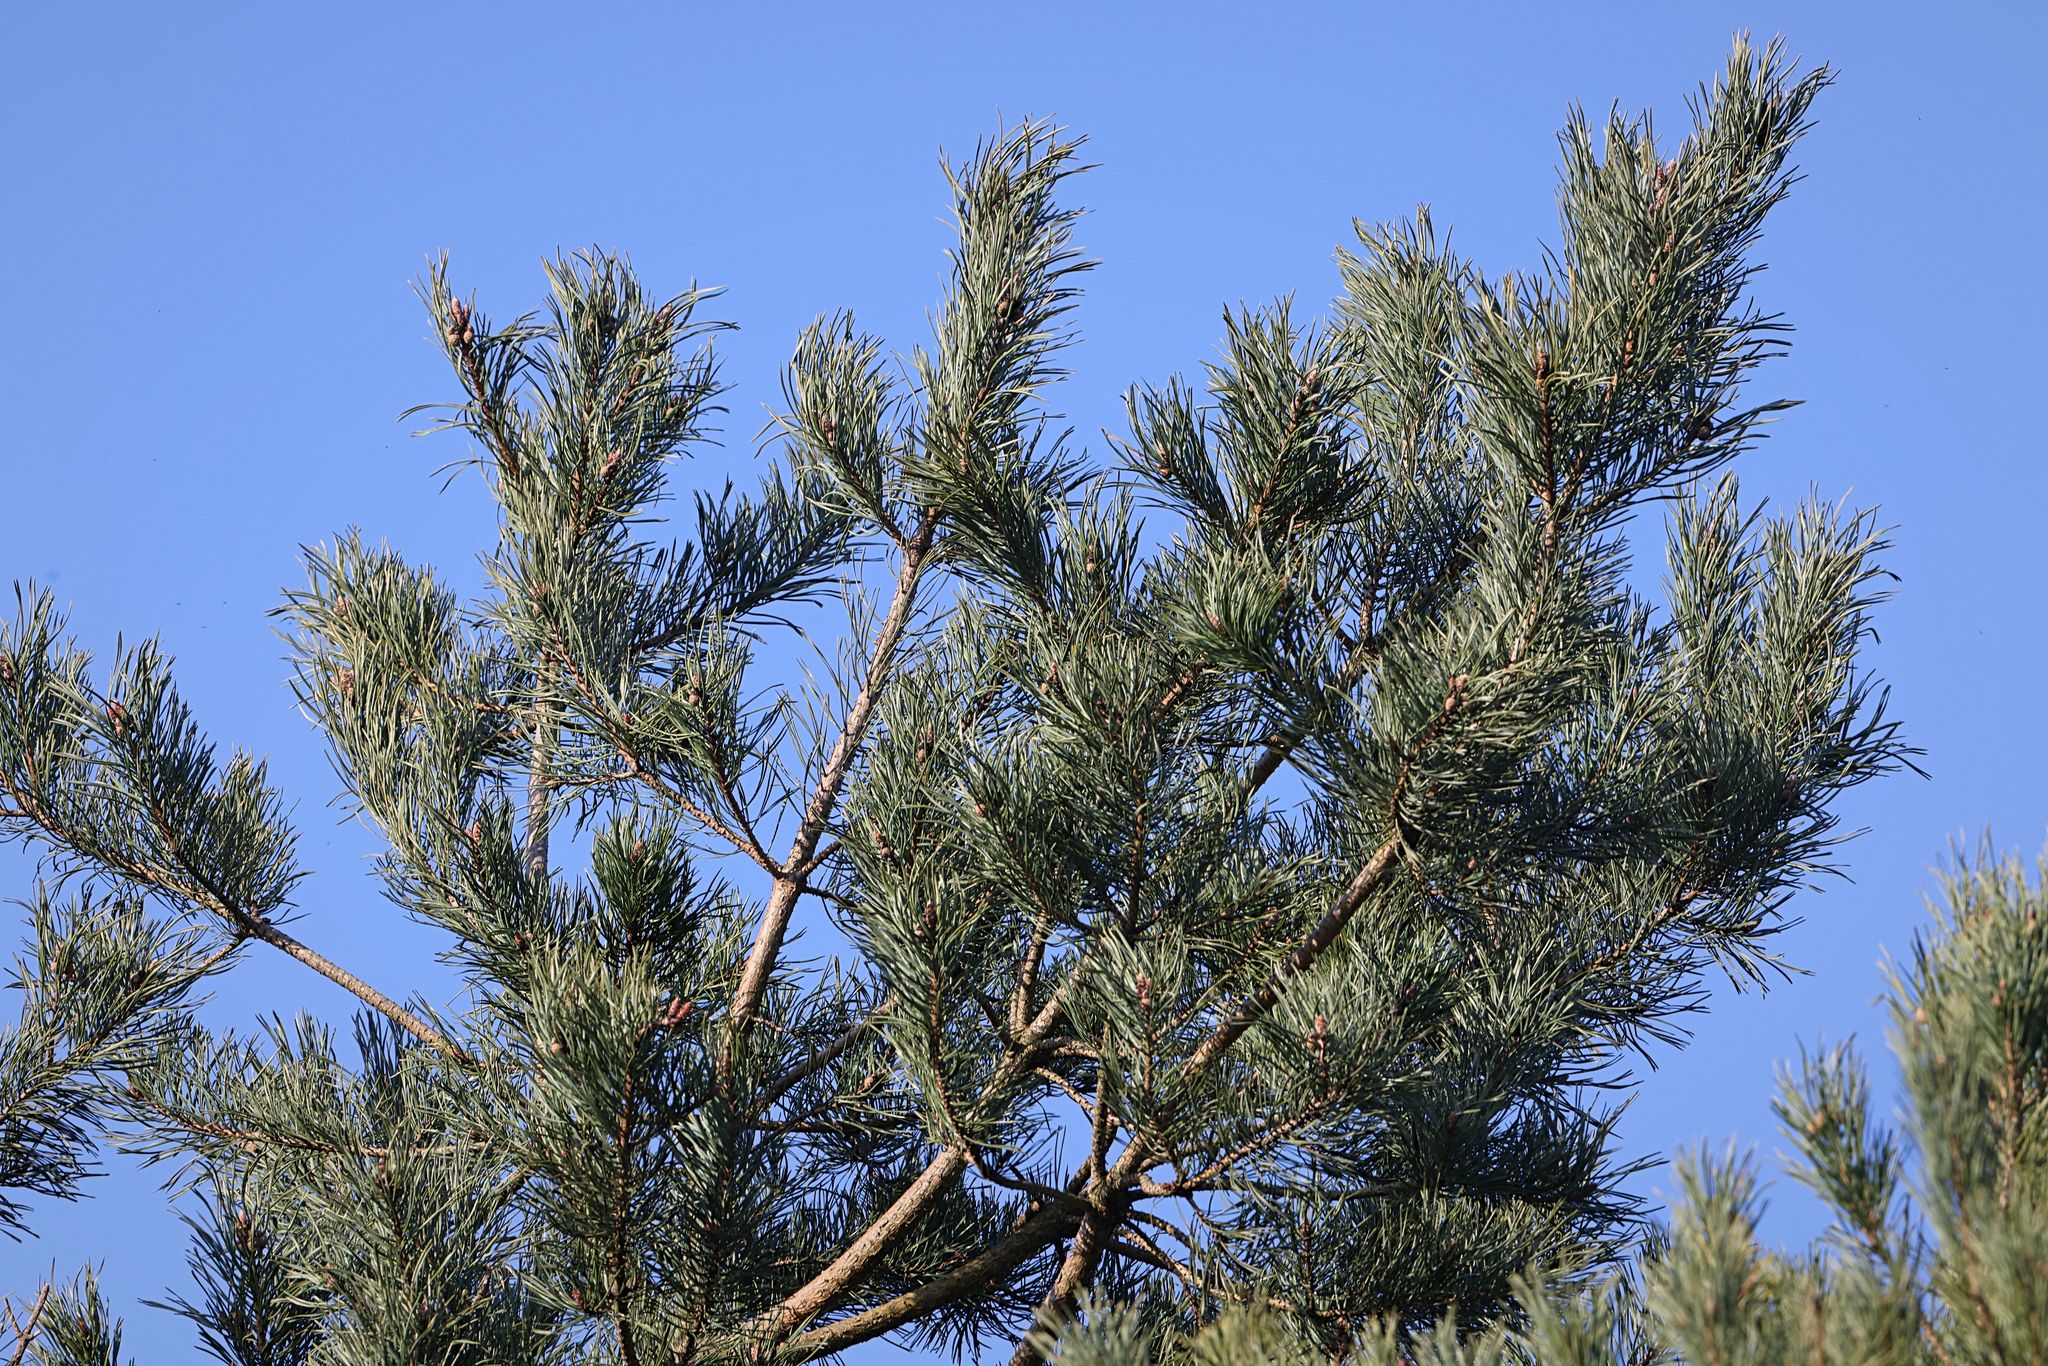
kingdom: Plantae
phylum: Tracheophyta
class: Pinopsida
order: Pinales
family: Pinaceae
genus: Pinus
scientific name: Pinus sylvestris
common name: Scots pine
